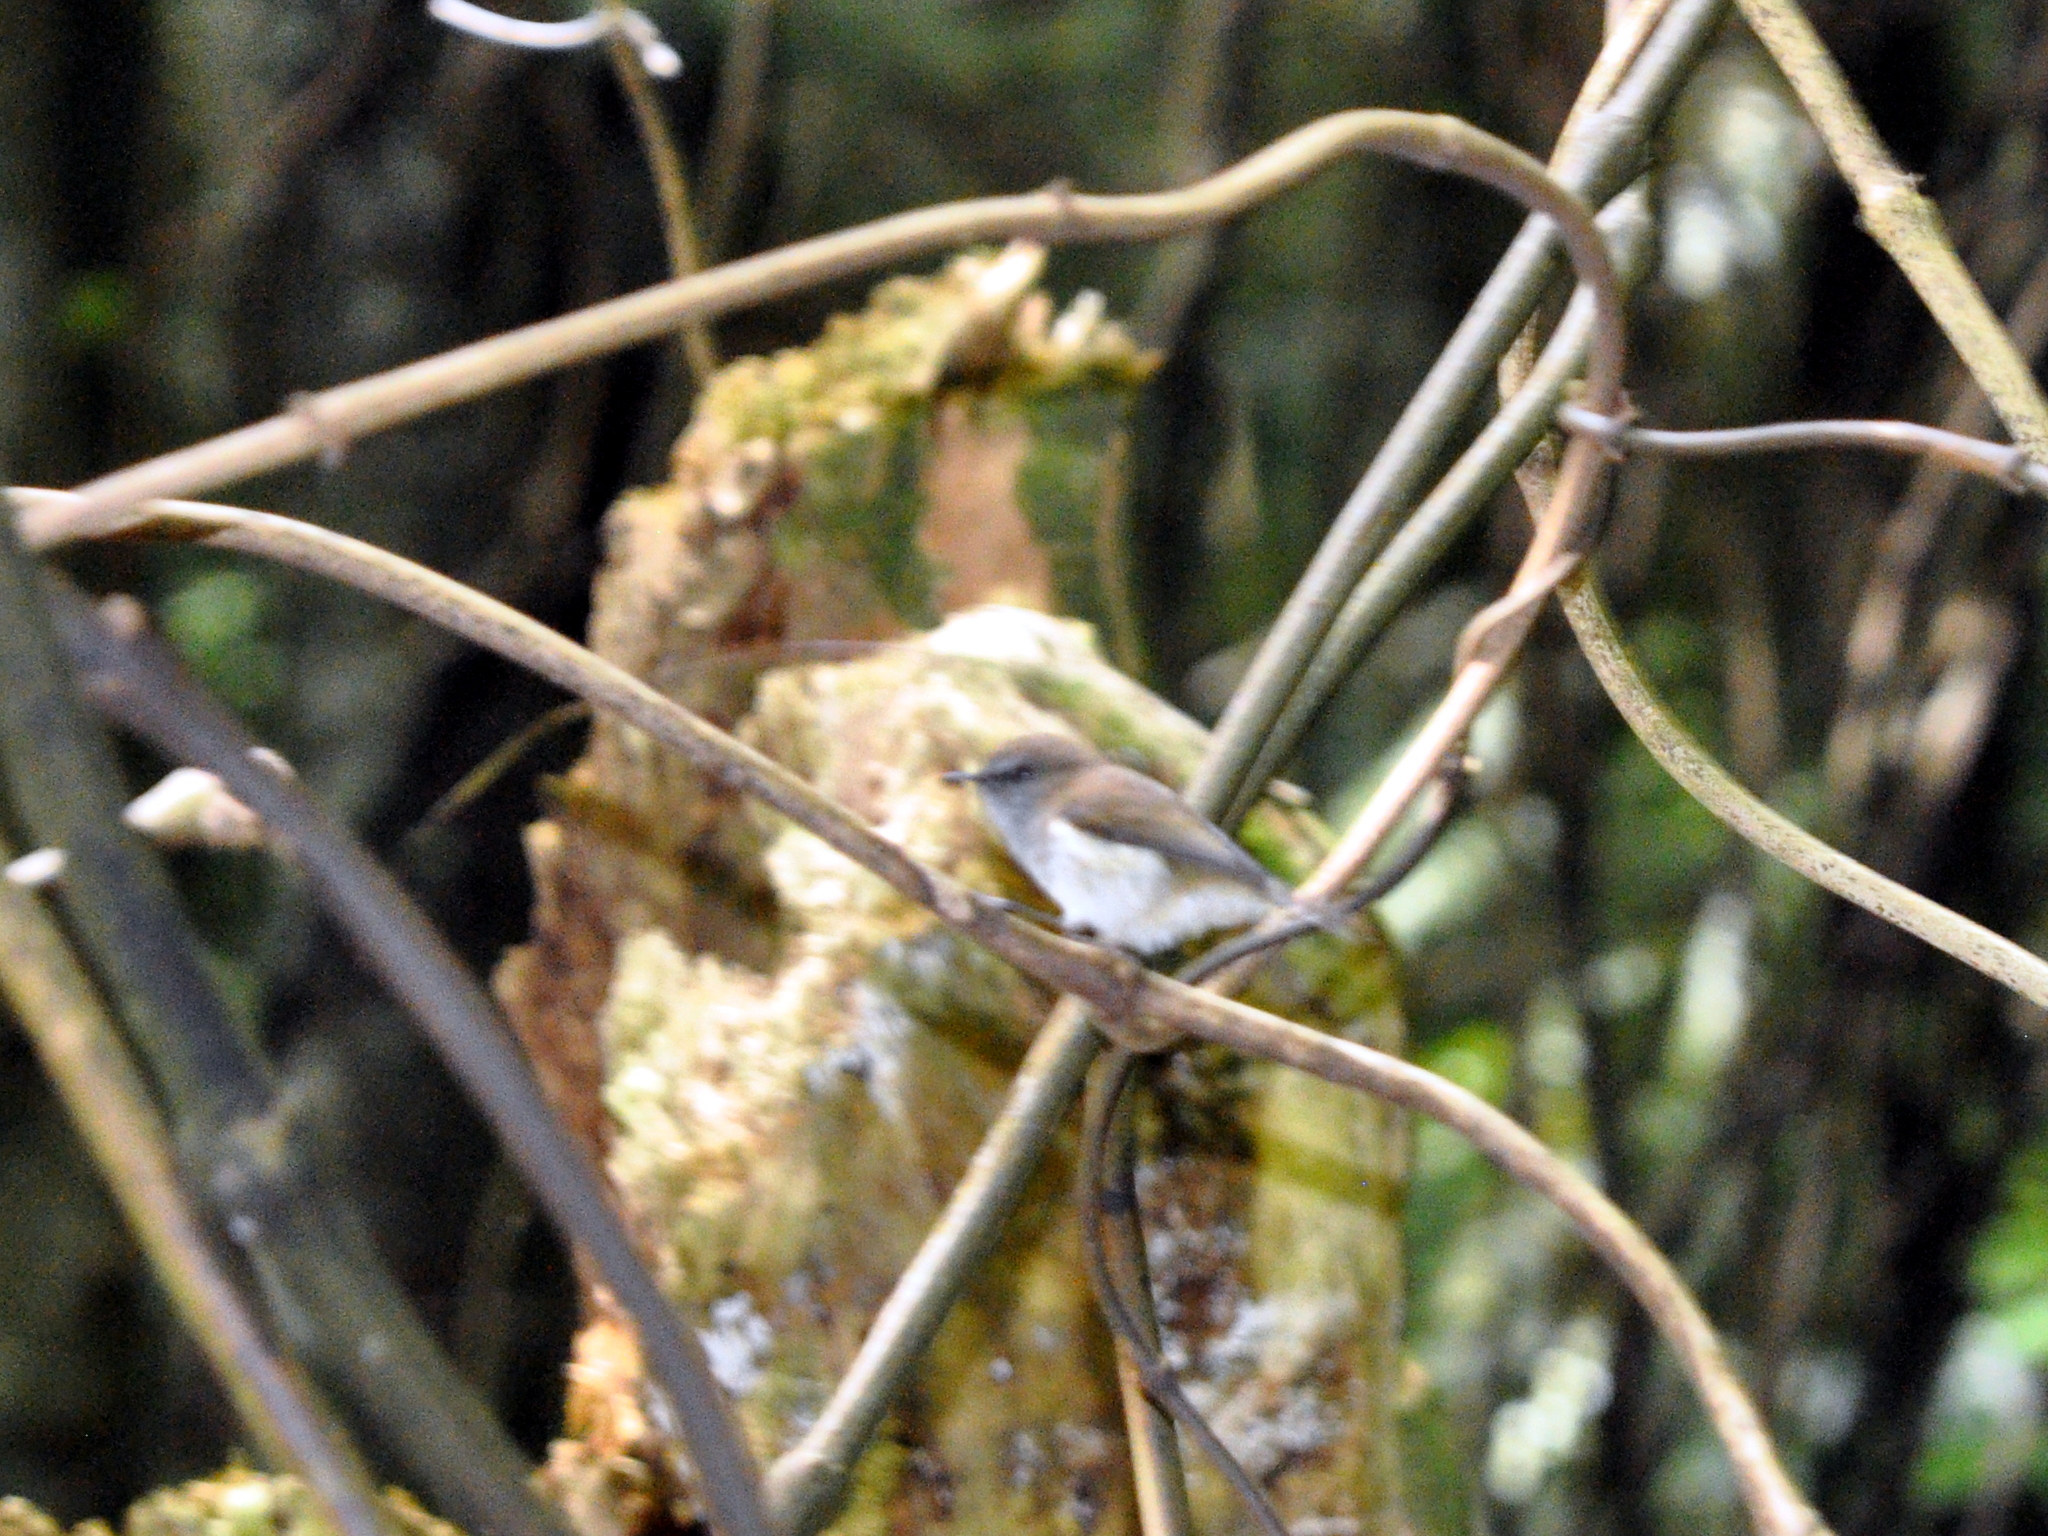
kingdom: Animalia
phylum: Chordata
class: Aves
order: Passeriformes
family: Acanthizidae
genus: Gerygone
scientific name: Gerygone igata
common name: Grey gerygone
